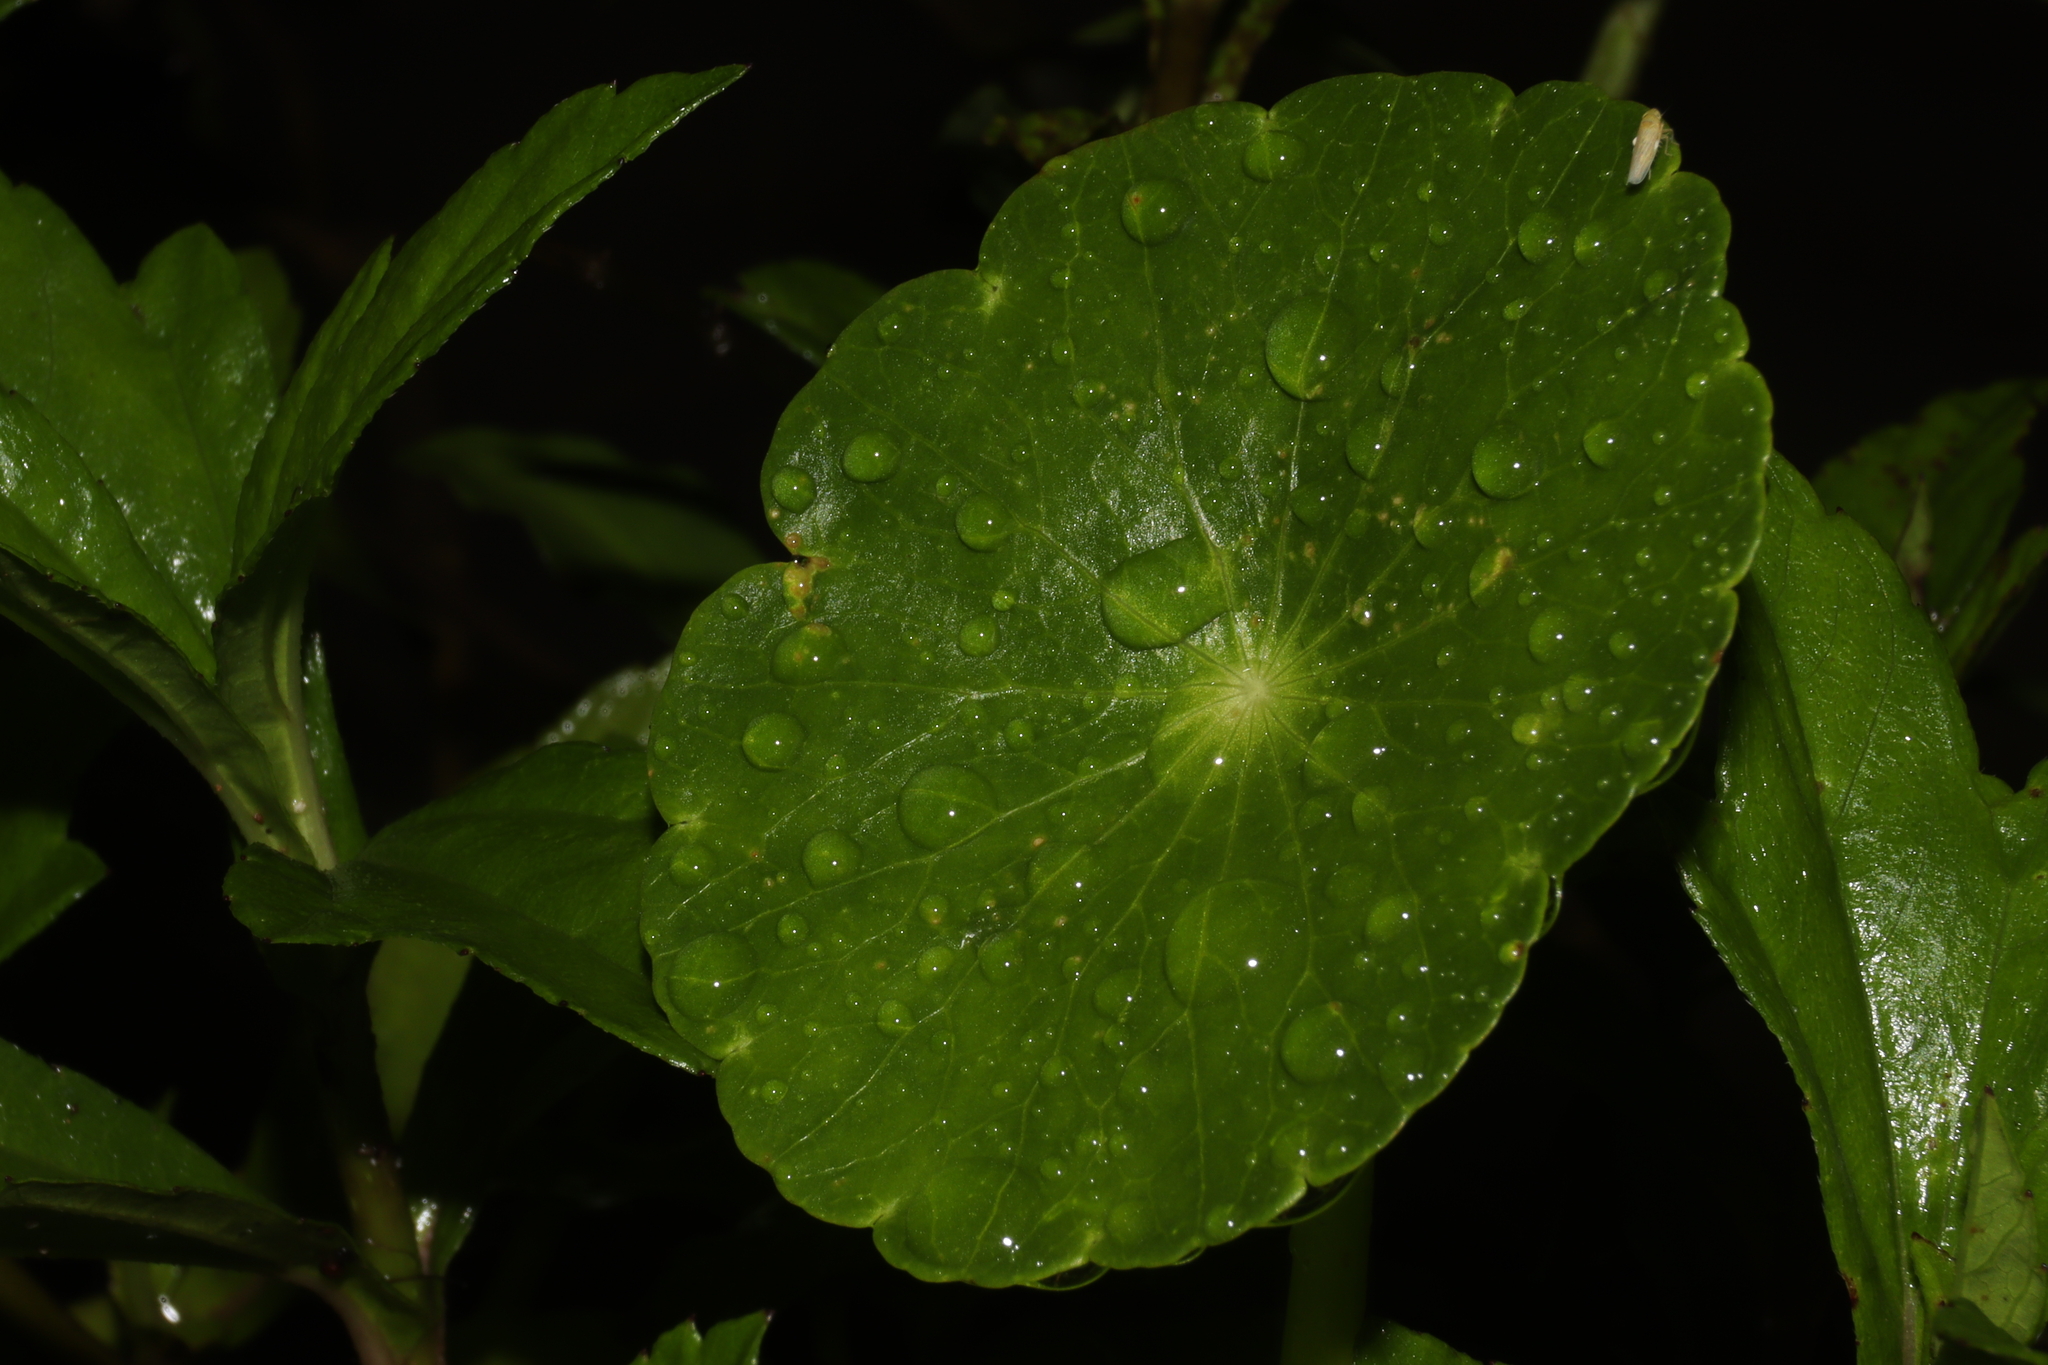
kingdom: Plantae
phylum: Tracheophyta
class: Magnoliopsida
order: Apiales
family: Araliaceae
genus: Hydrocotyle
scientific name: Hydrocotyle umbellata
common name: Water pennywort
